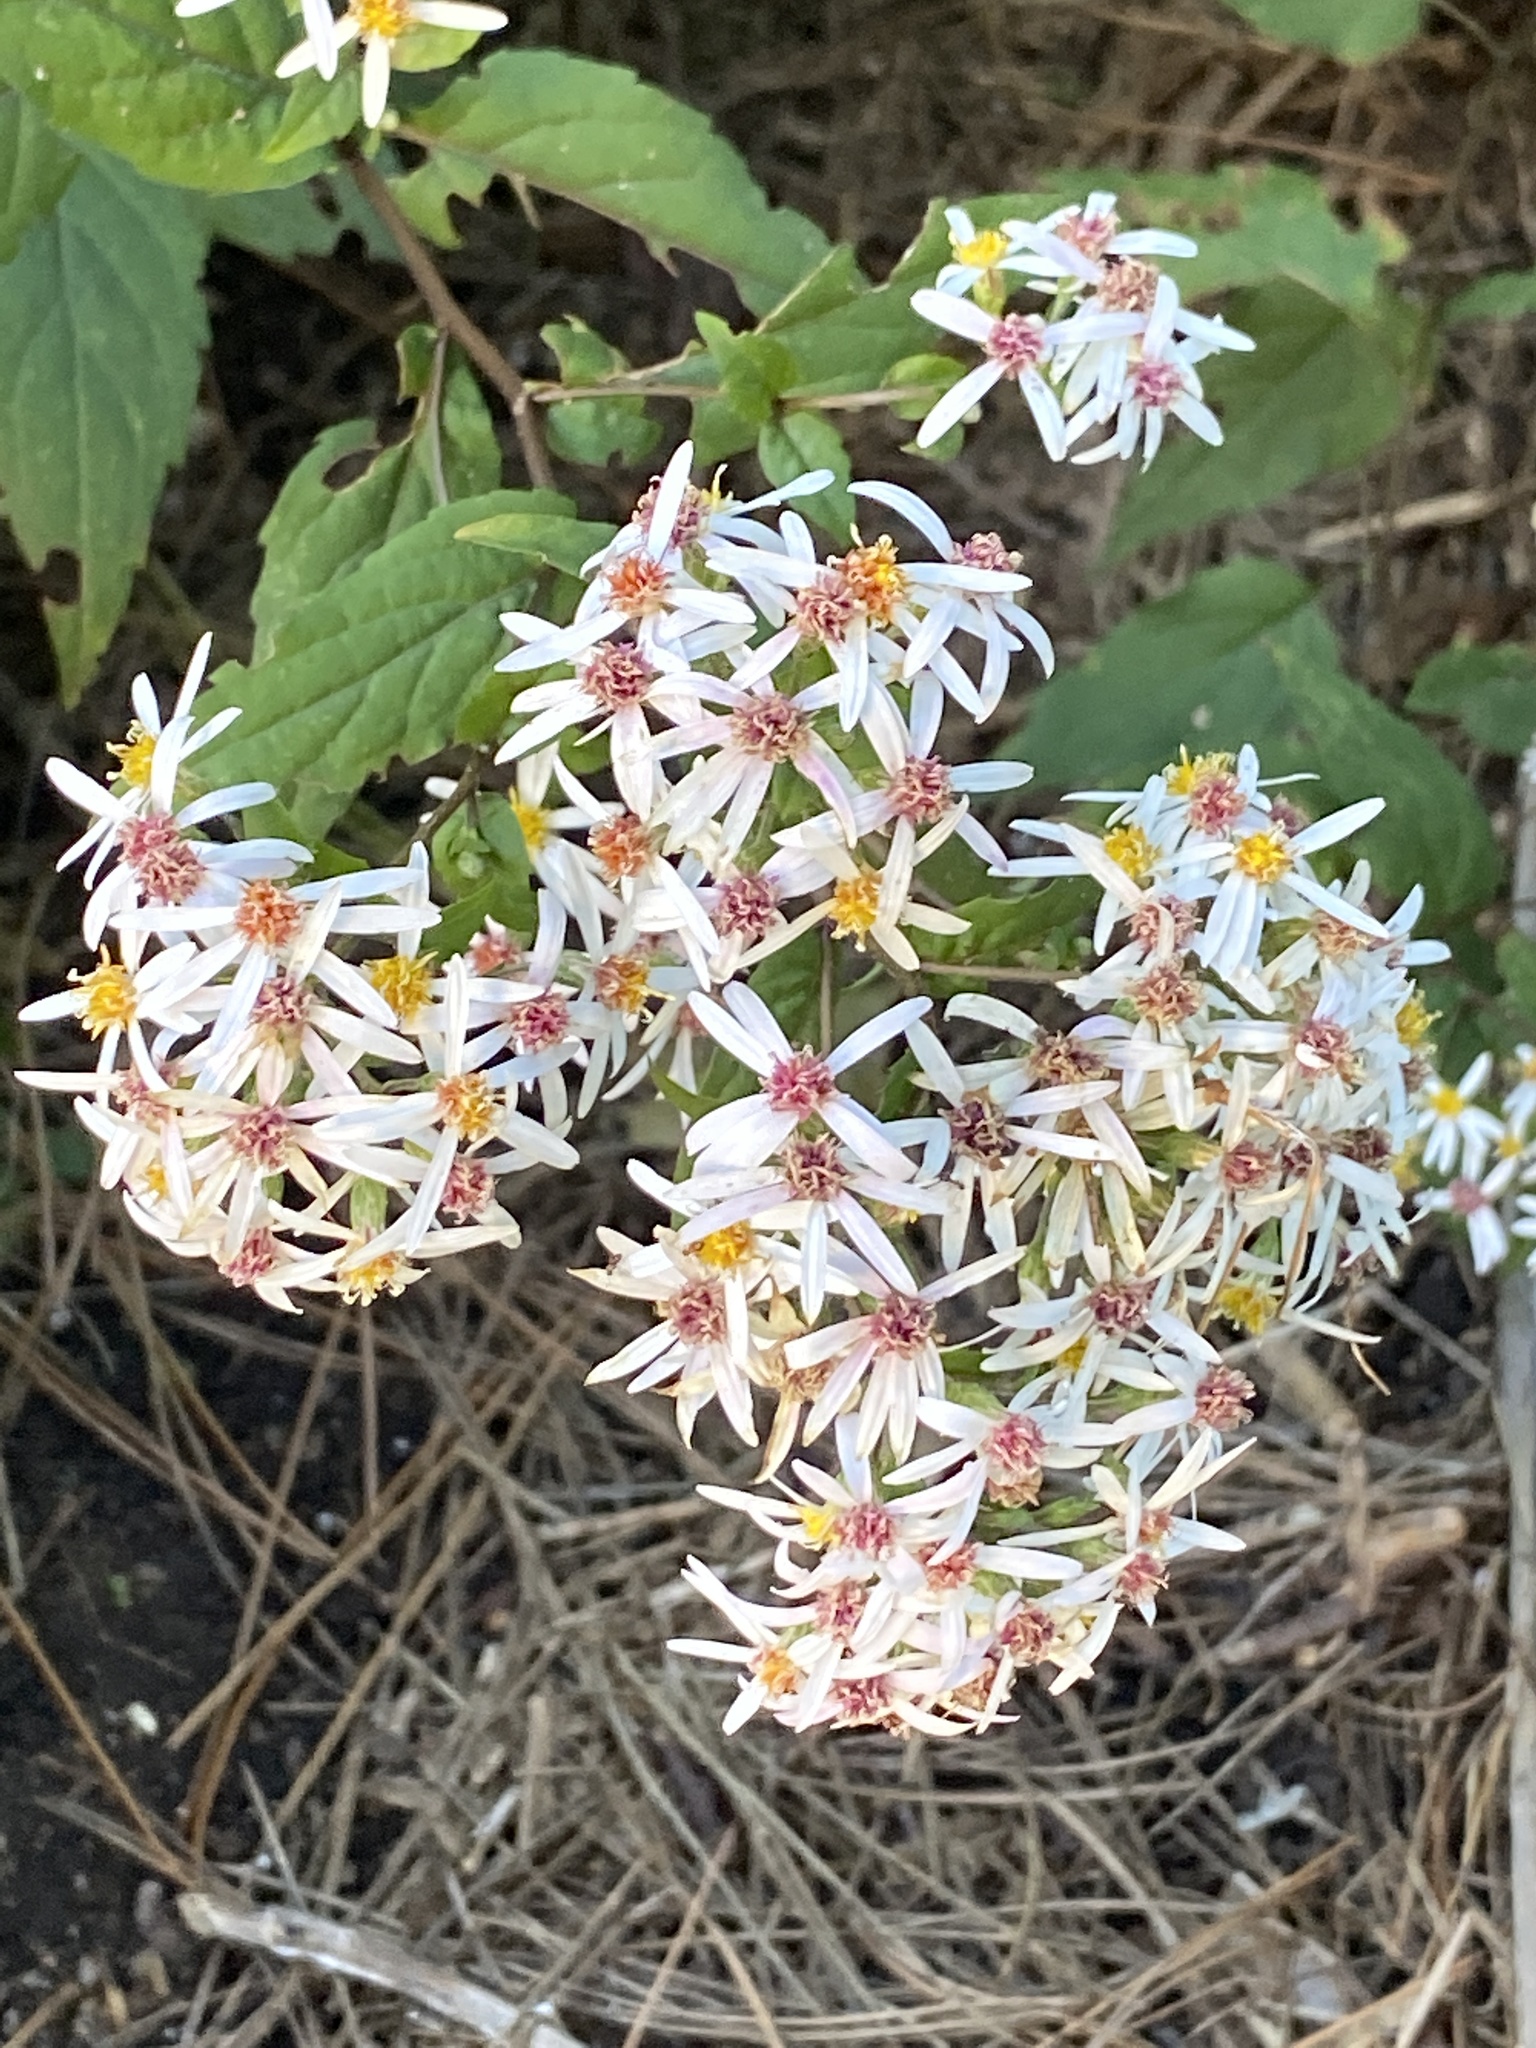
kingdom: Plantae
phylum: Tracheophyta
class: Magnoliopsida
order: Asterales
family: Asteraceae
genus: Eurybia
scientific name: Eurybia divaricata
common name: White wood aster
